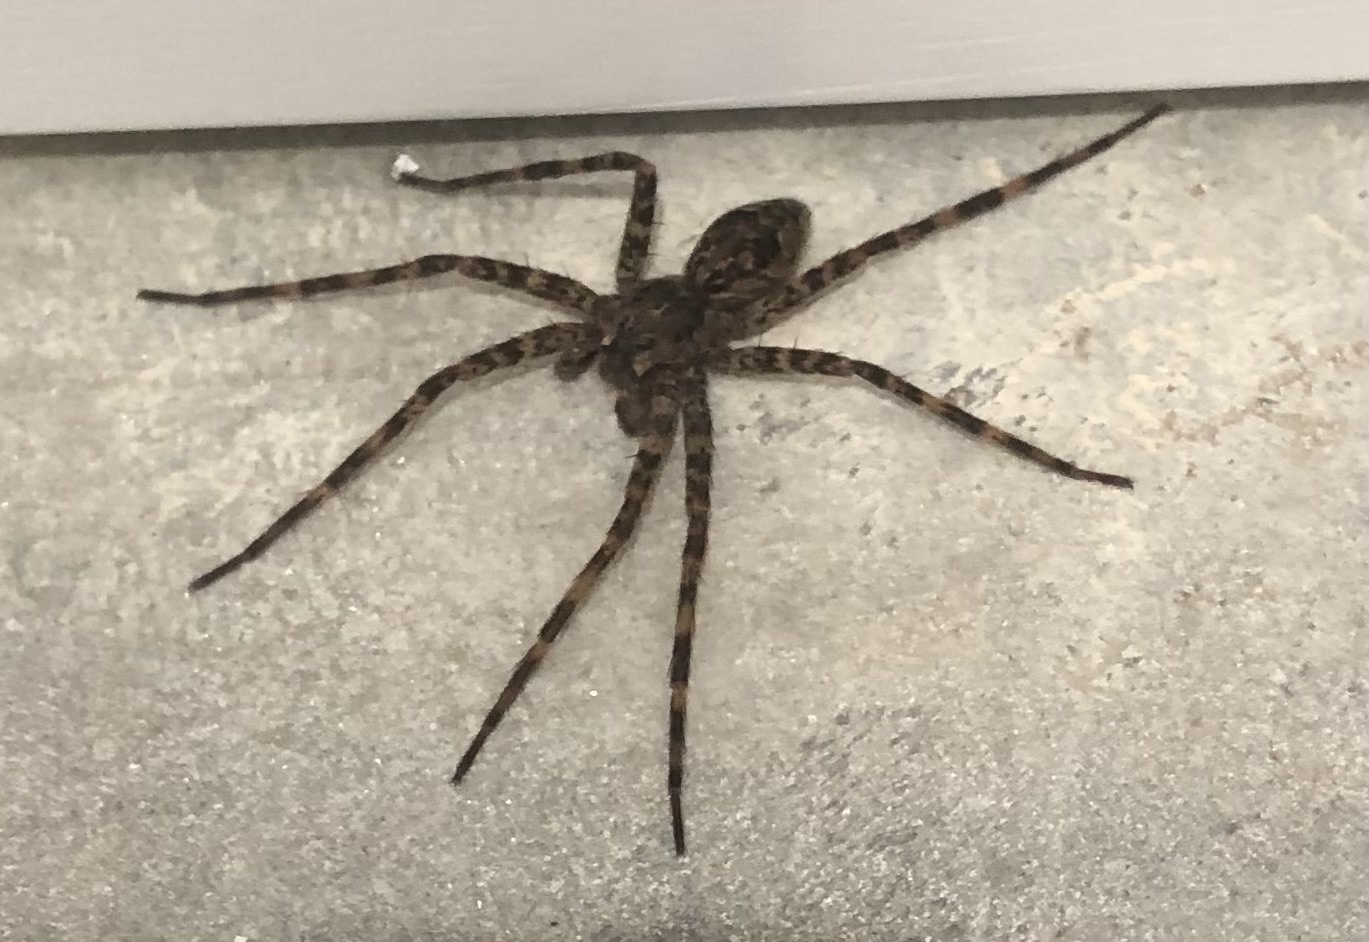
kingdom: Animalia
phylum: Arthropoda
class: Arachnida
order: Araneae
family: Pisauridae
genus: Dolomedes
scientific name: Dolomedes tenebrosus
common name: Dark fishing spider
